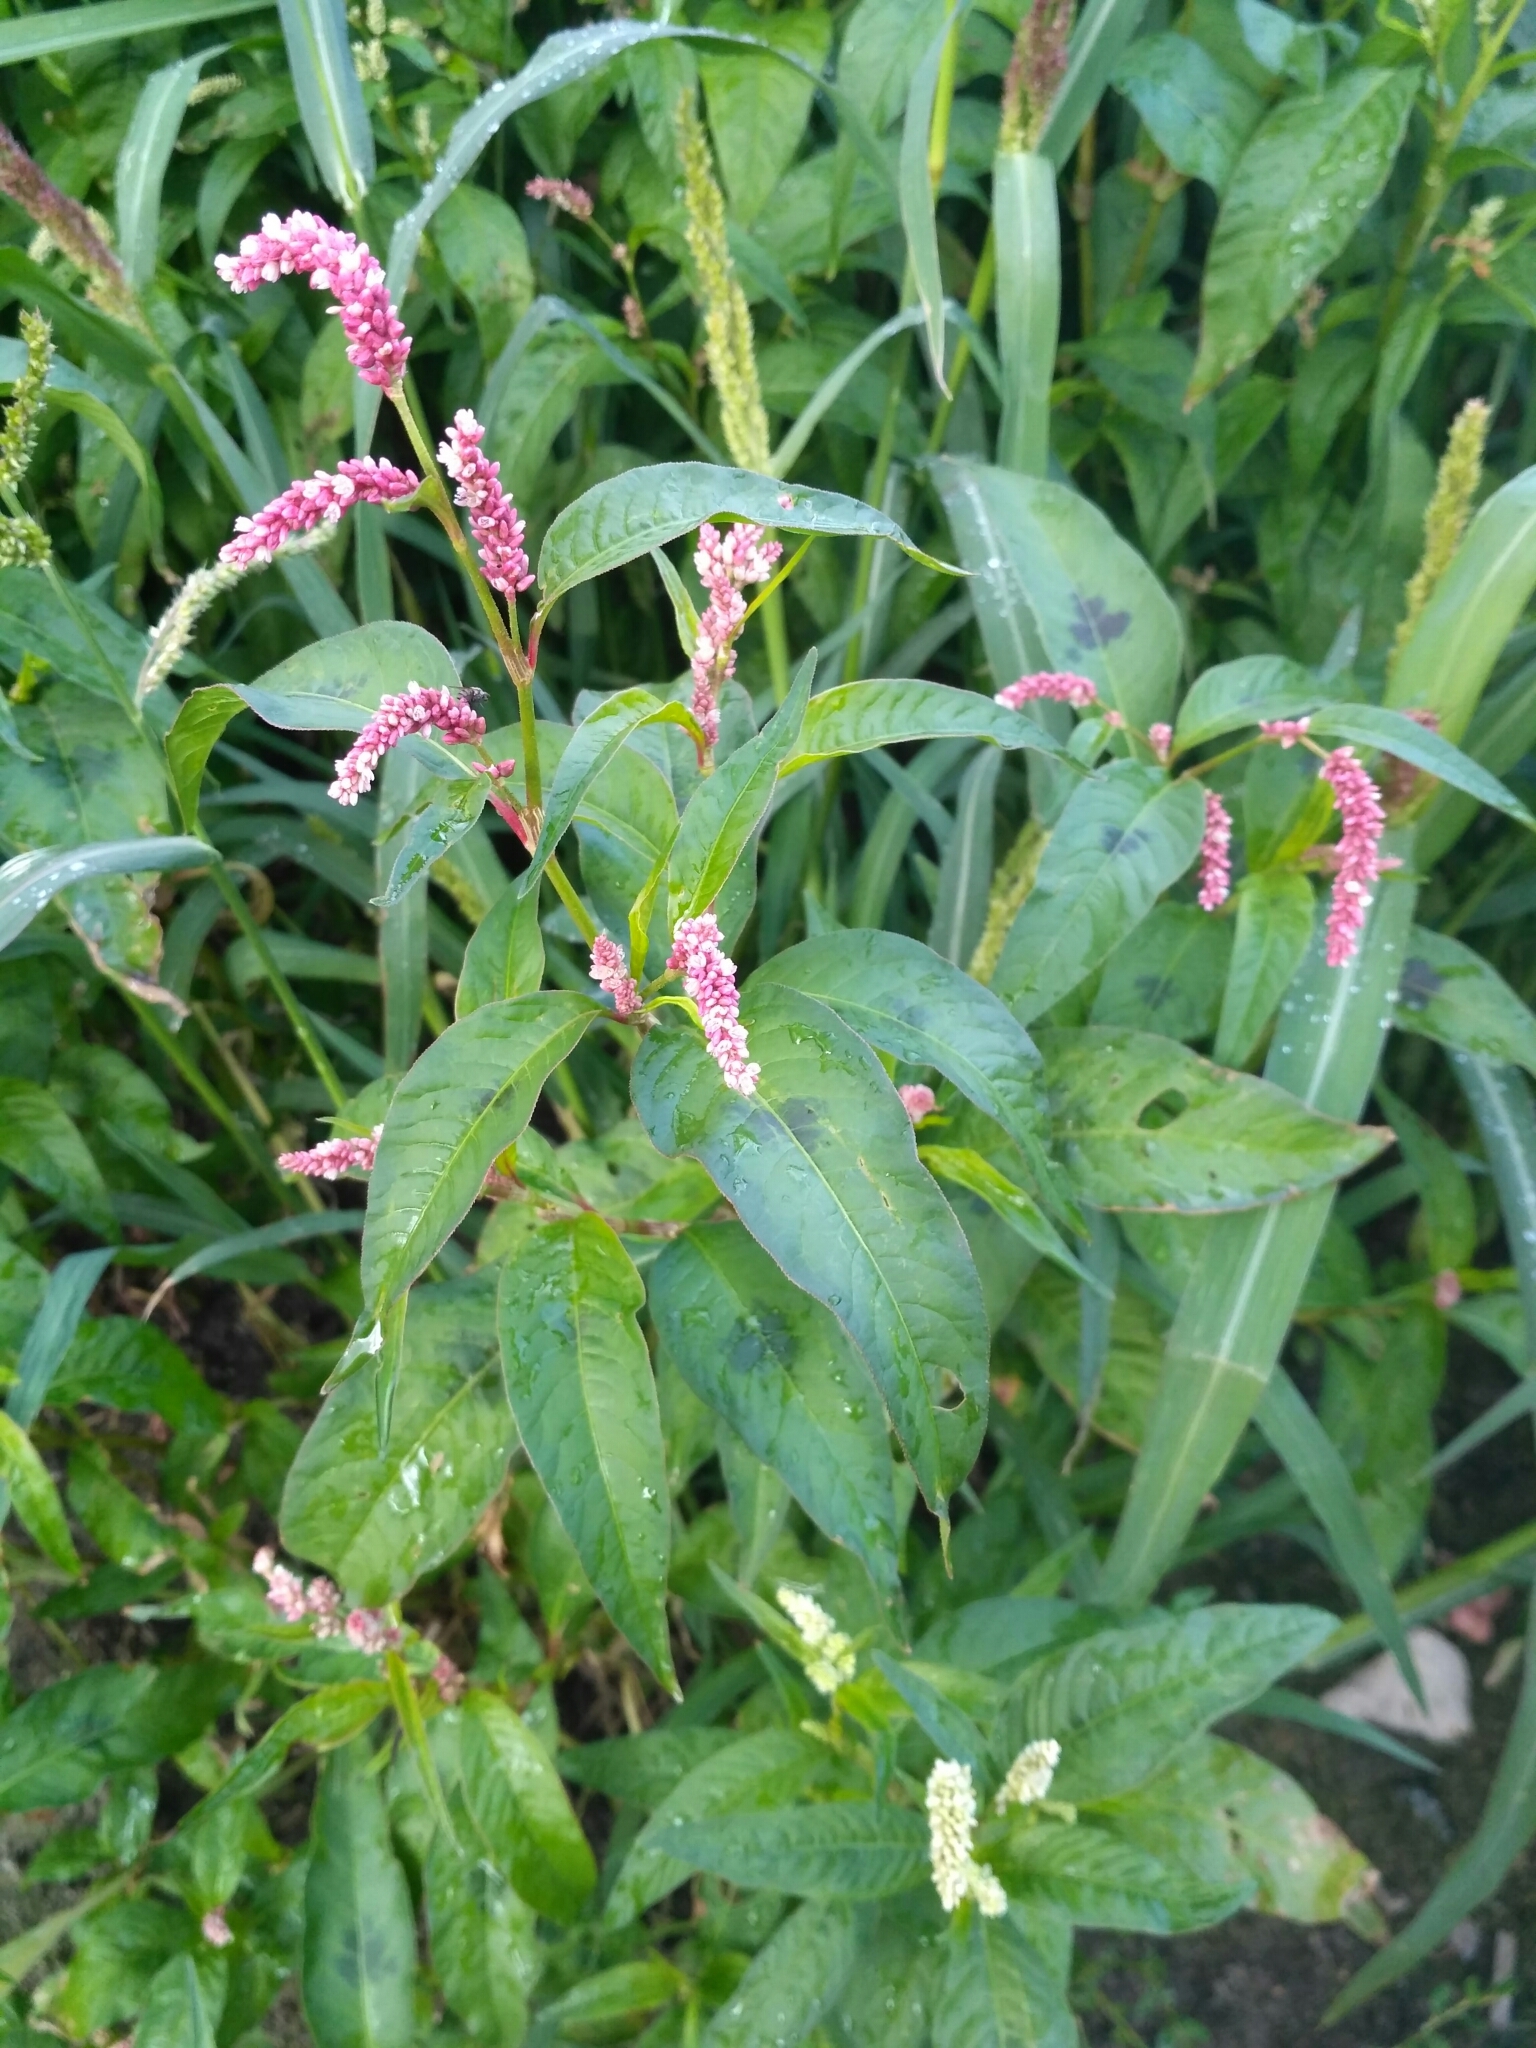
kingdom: Plantae
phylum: Tracheophyta
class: Magnoliopsida
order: Caryophyllales
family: Polygonaceae
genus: Persicaria
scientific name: Persicaria lapathifolia
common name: Curlytop knotweed
